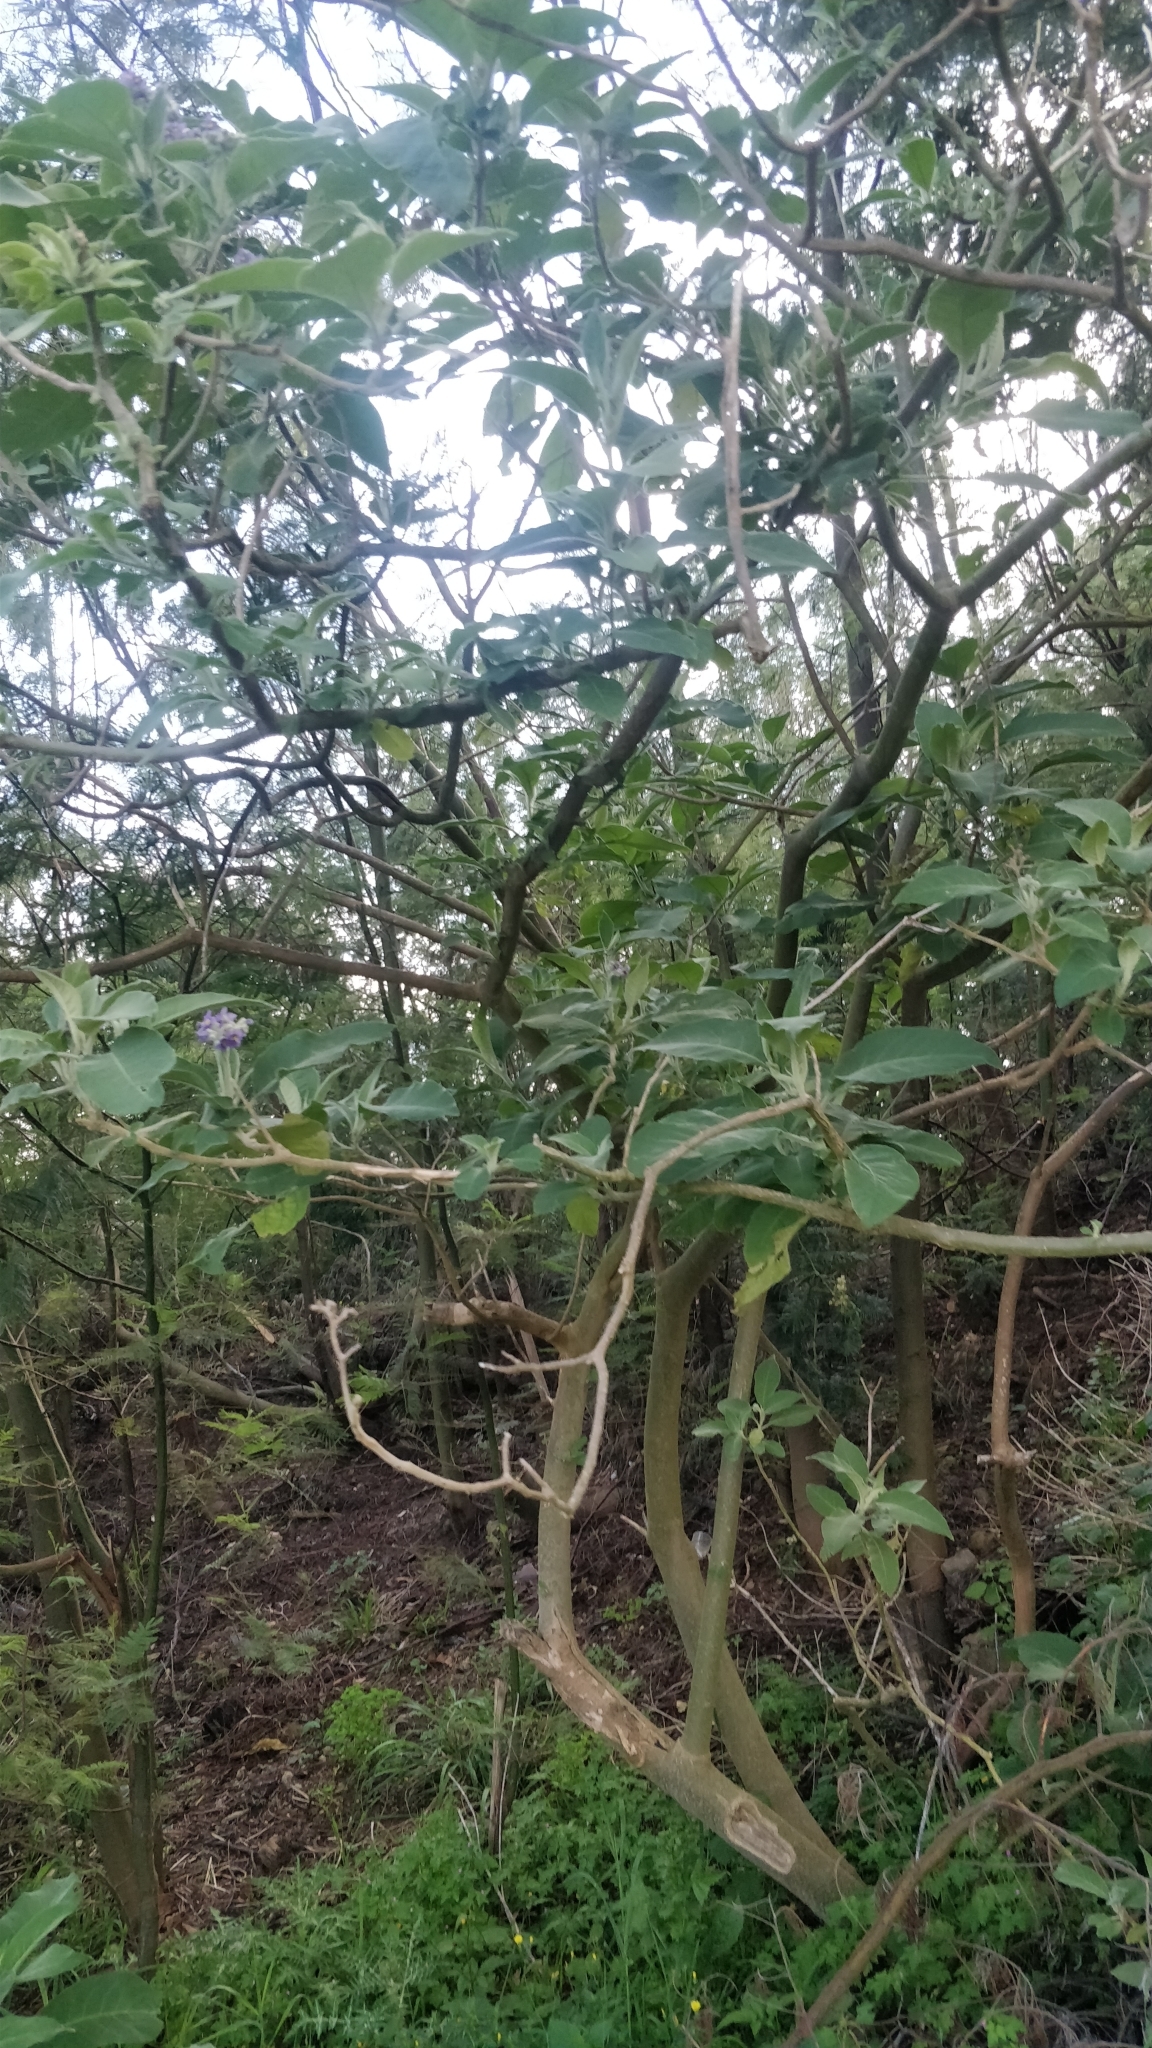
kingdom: Plantae
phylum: Tracheophyta
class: Magnoliopsida
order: Solanales
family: Solanaceae
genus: Solanum
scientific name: Solanum mauritianum
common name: Earleaf nightshade
